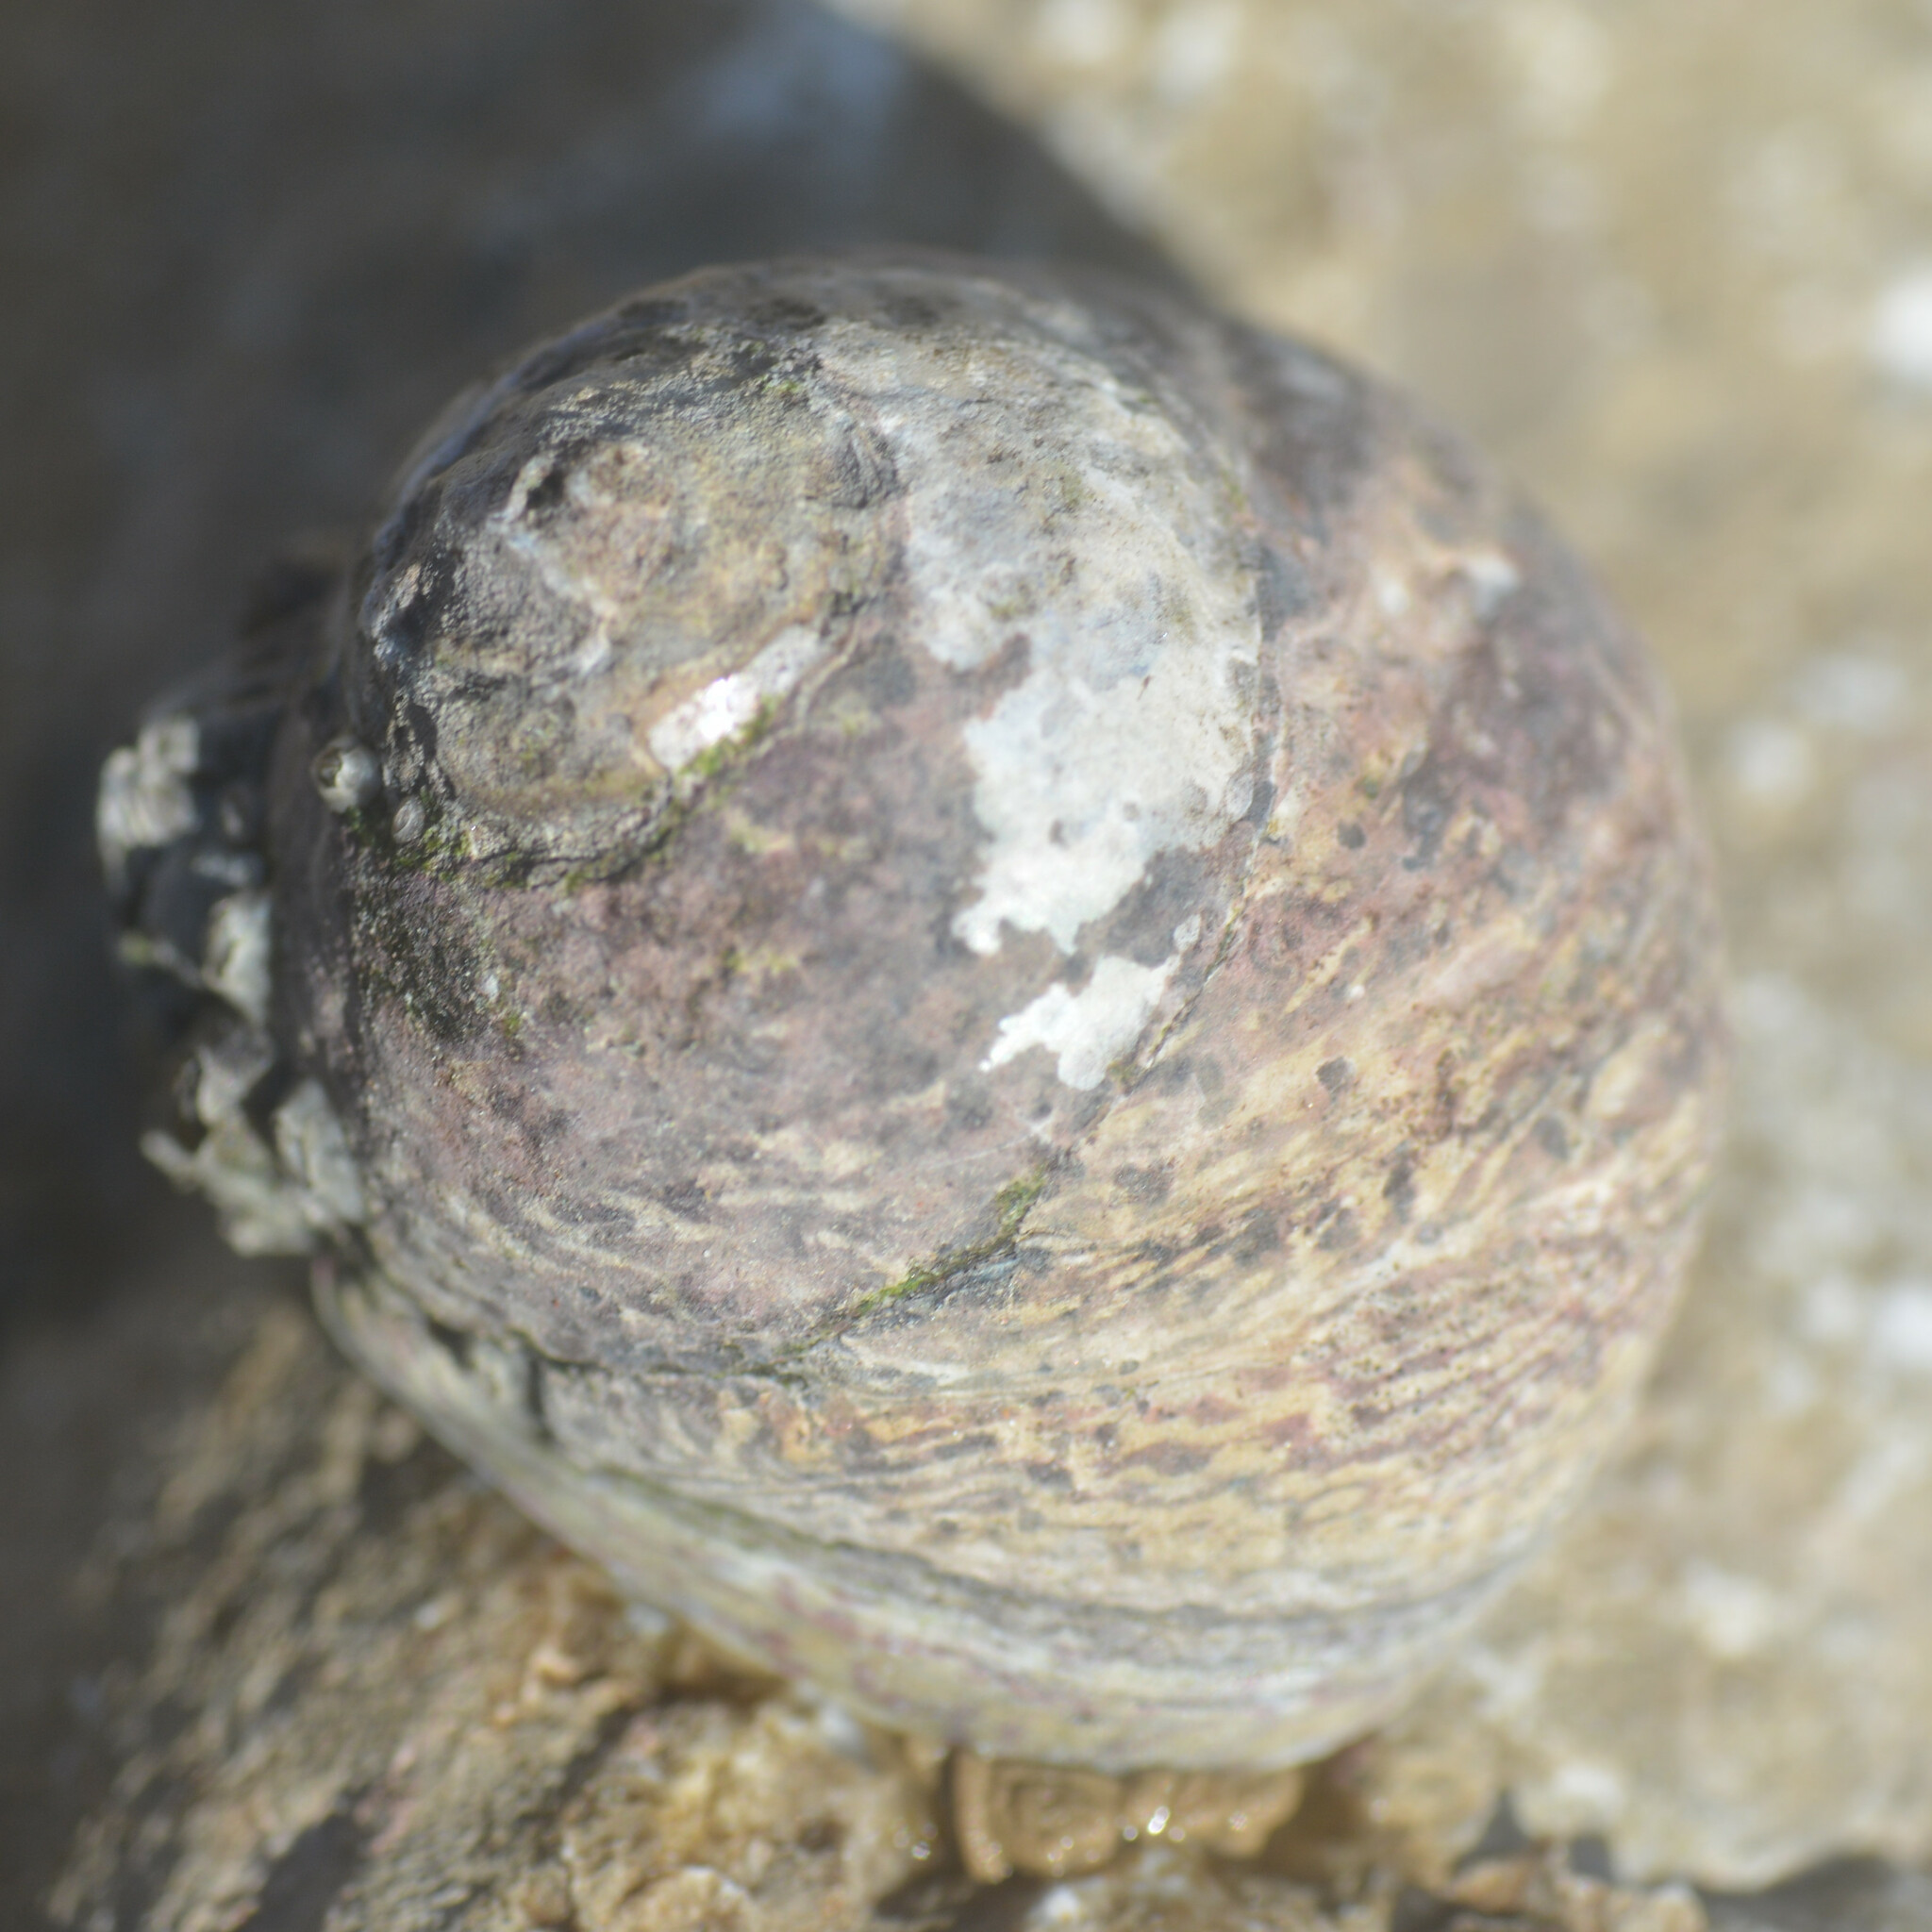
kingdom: Animalia
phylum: Mollusca
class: Gastropoda
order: Trochida
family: Trochidae
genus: Phorcus
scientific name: Phorcus lineatus
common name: Toothed top shell
